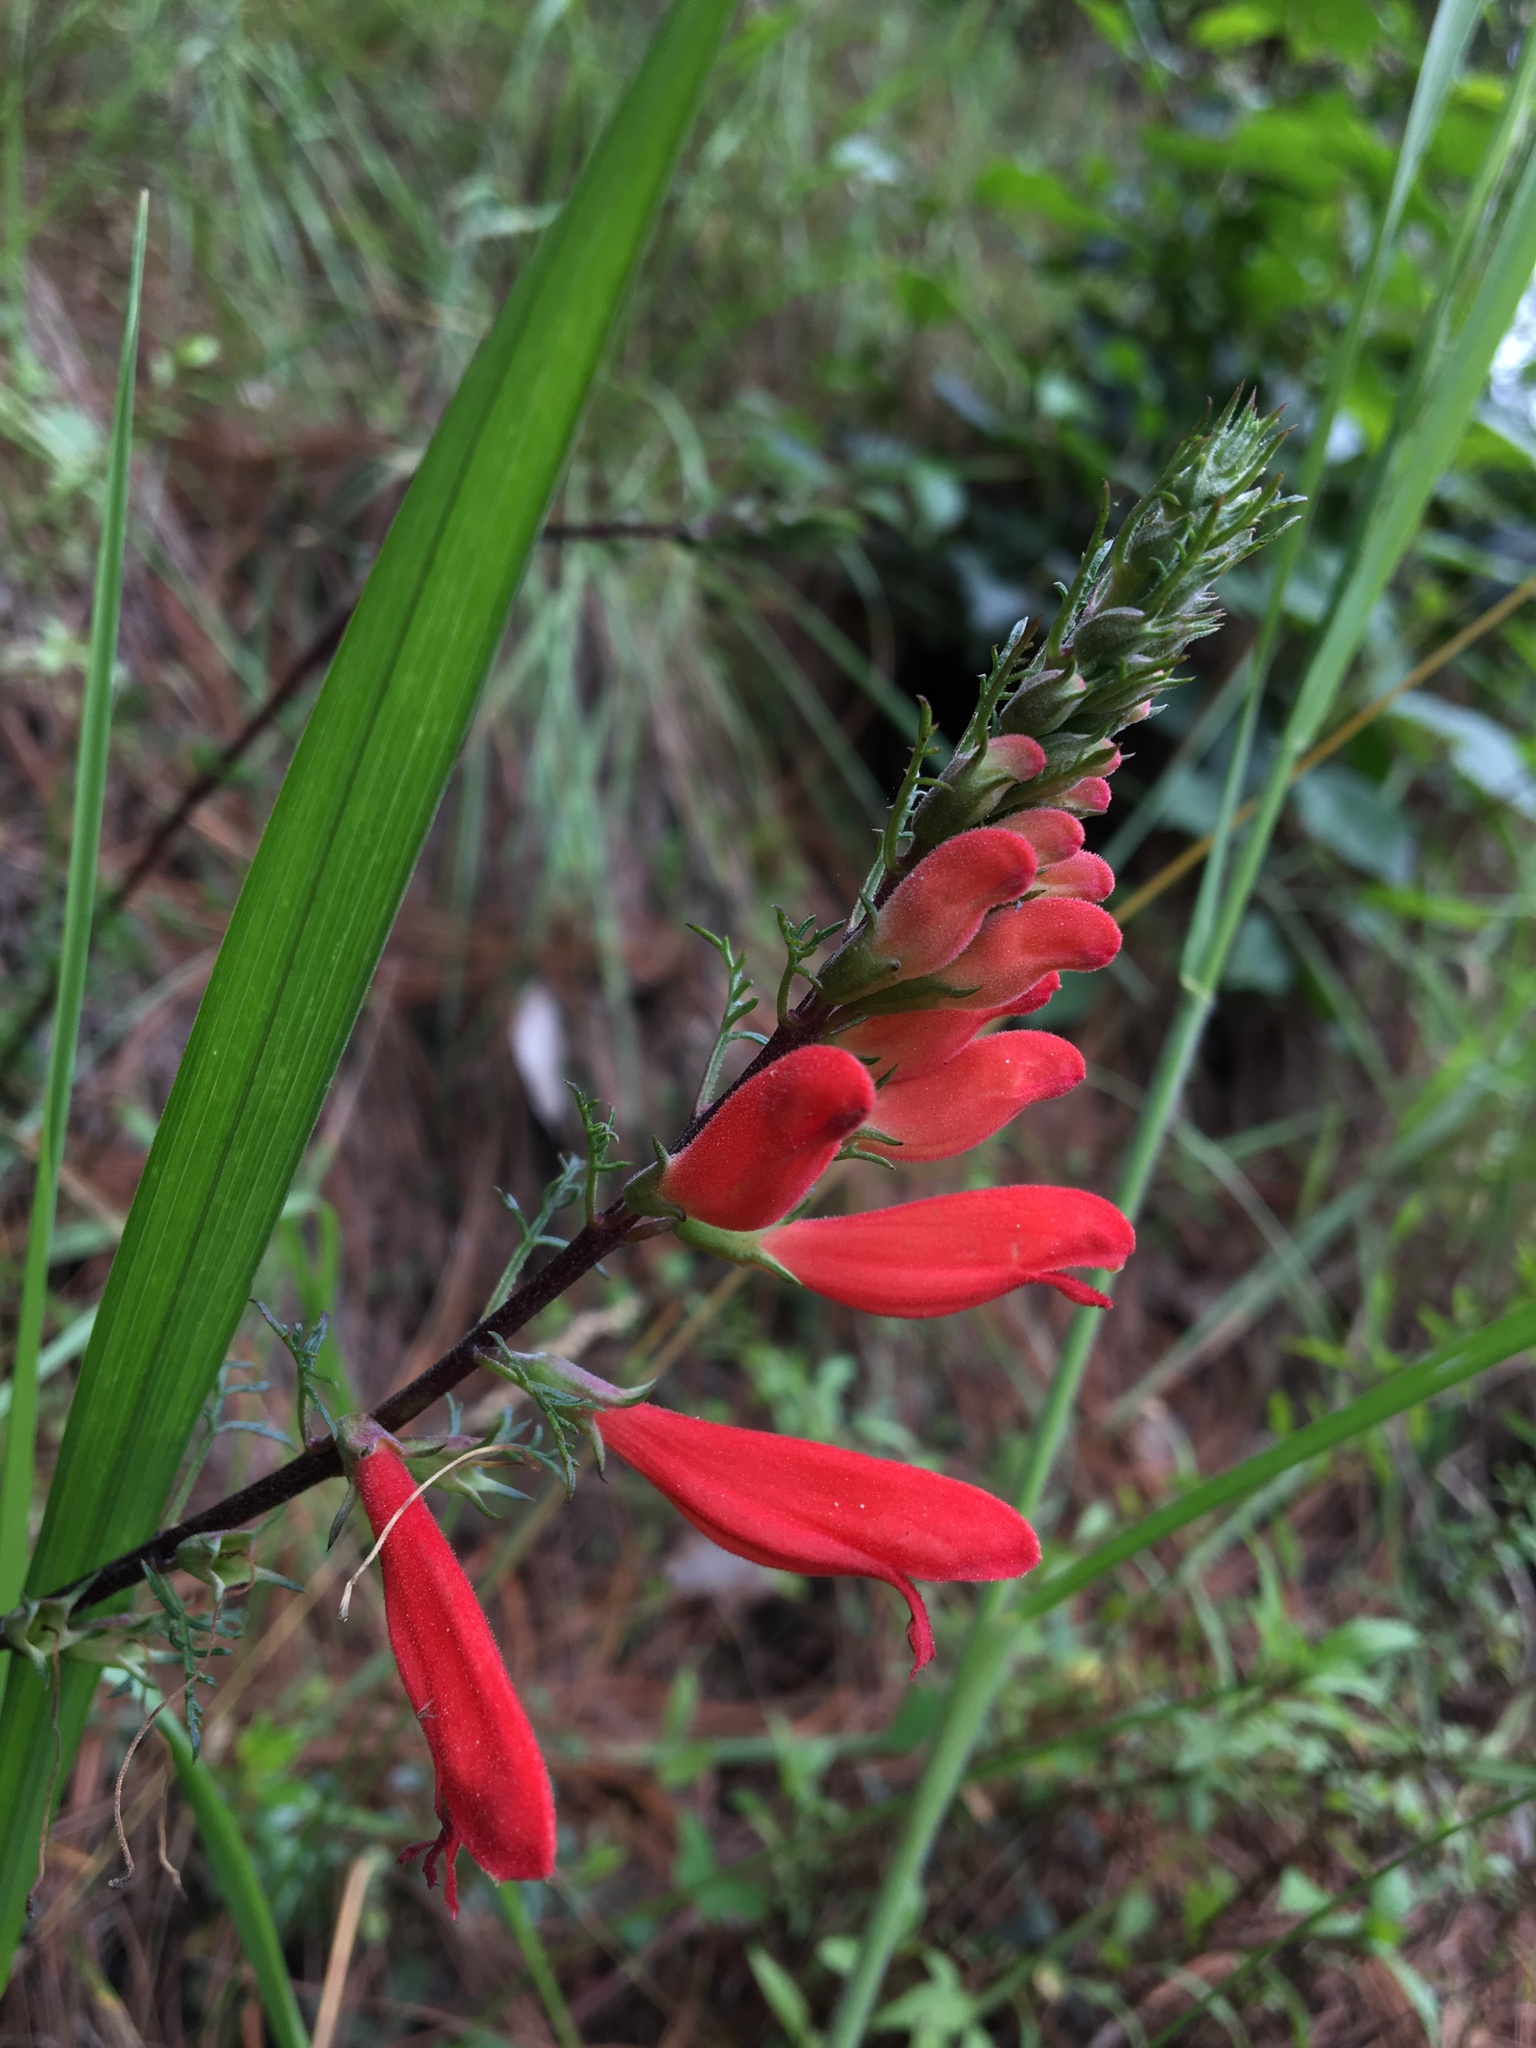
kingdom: Plantae
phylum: Tracheophyta
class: Magnoliopsida
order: Lamiales
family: Orobanchaceae
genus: Lamourouxia
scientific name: Lamourouxia multifida
